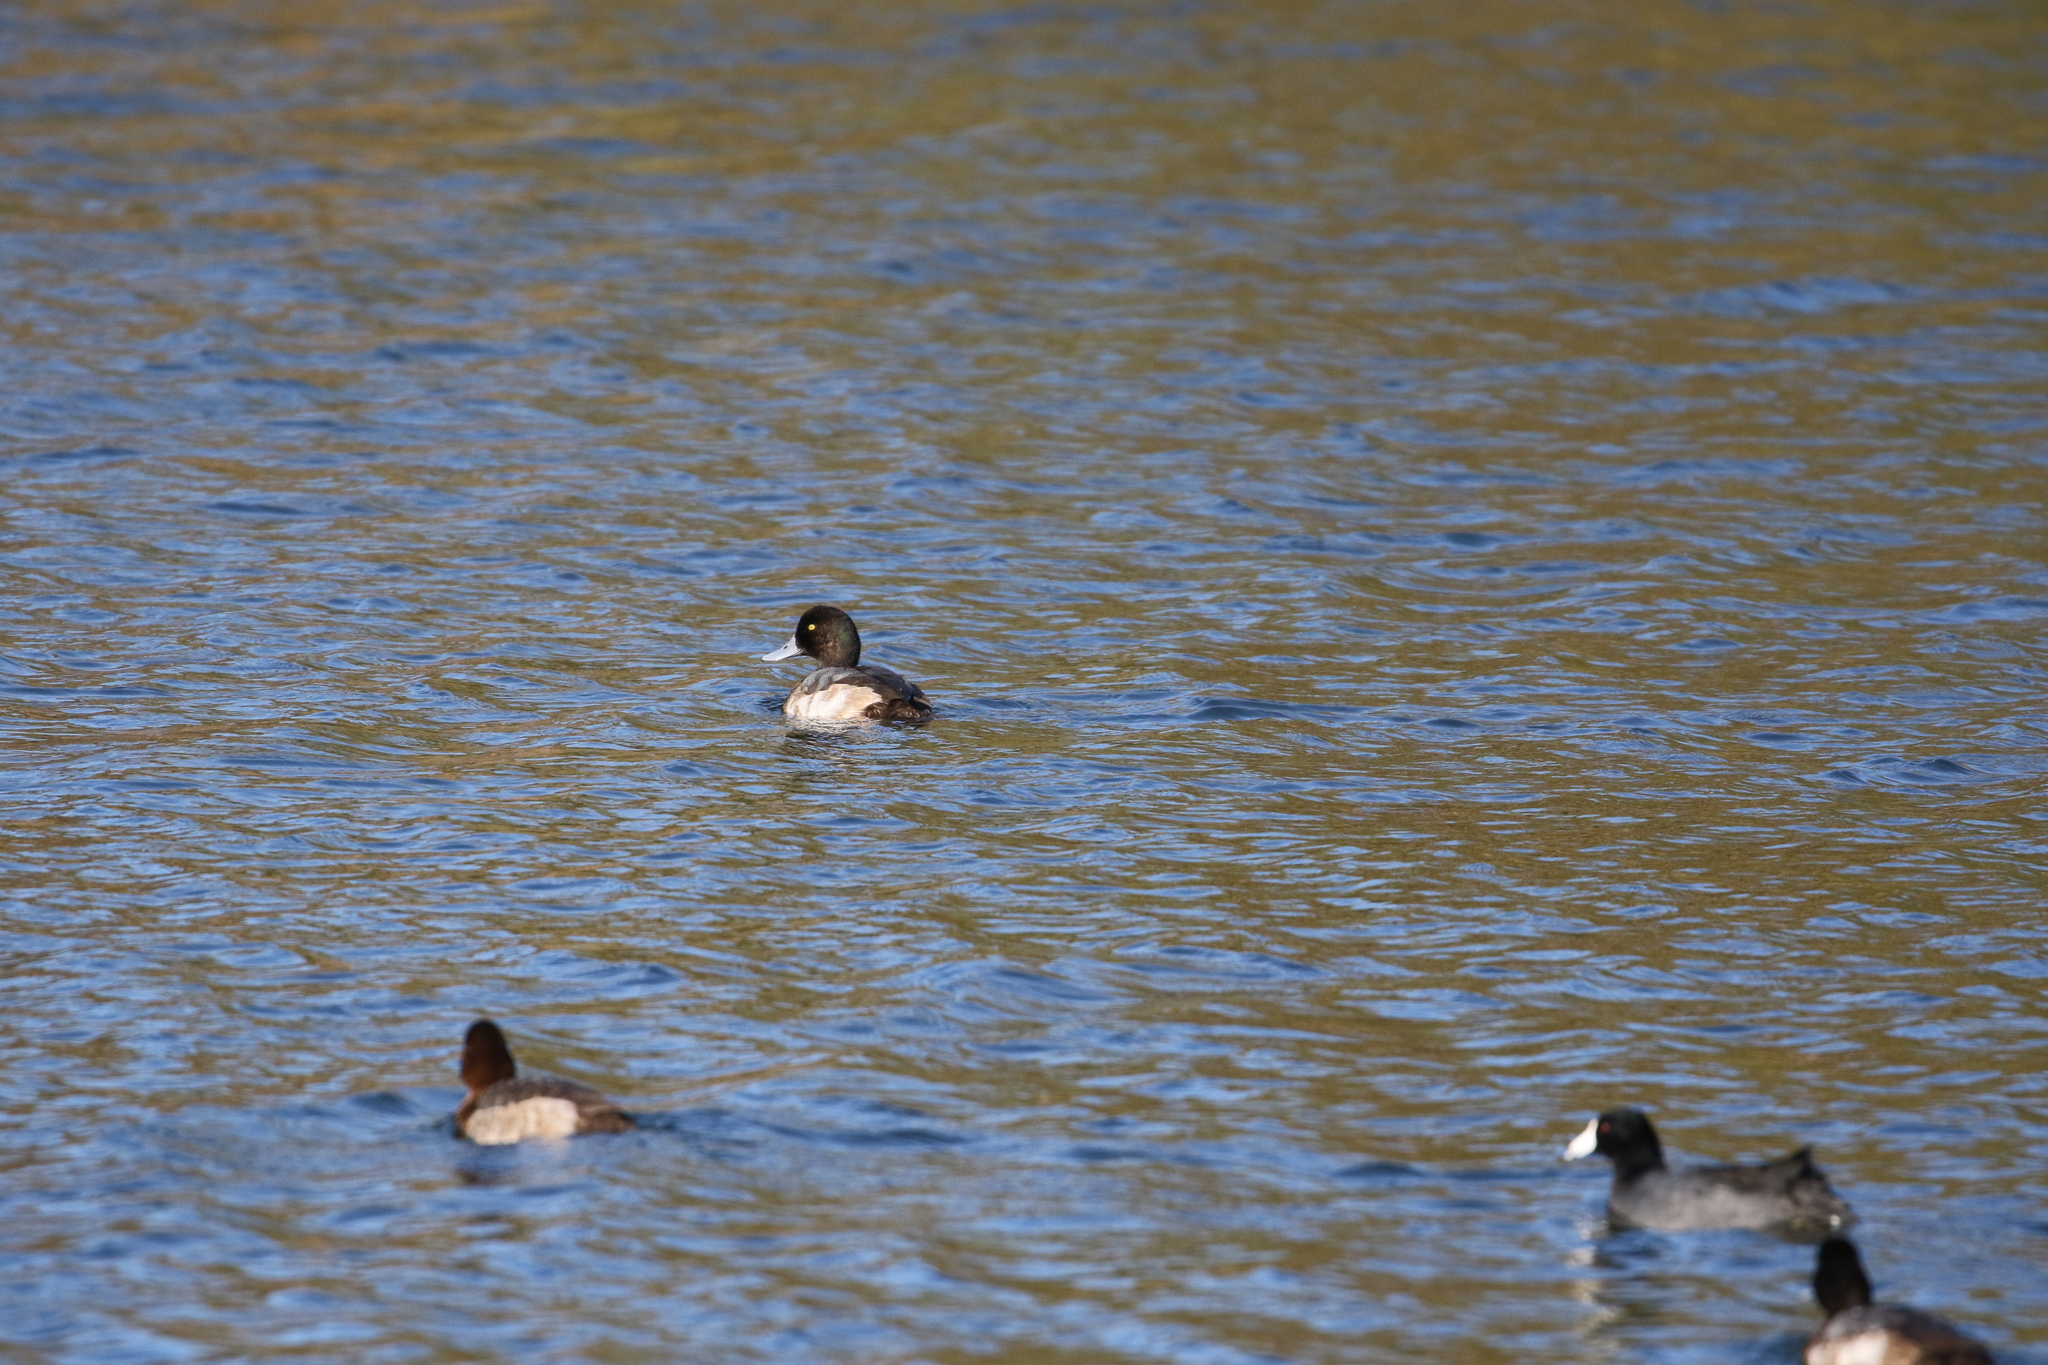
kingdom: Animalia
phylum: Chordata
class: Aves
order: Anseriformes
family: Anatidae
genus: Aythya
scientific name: Aythya marila
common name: Greater scaup
